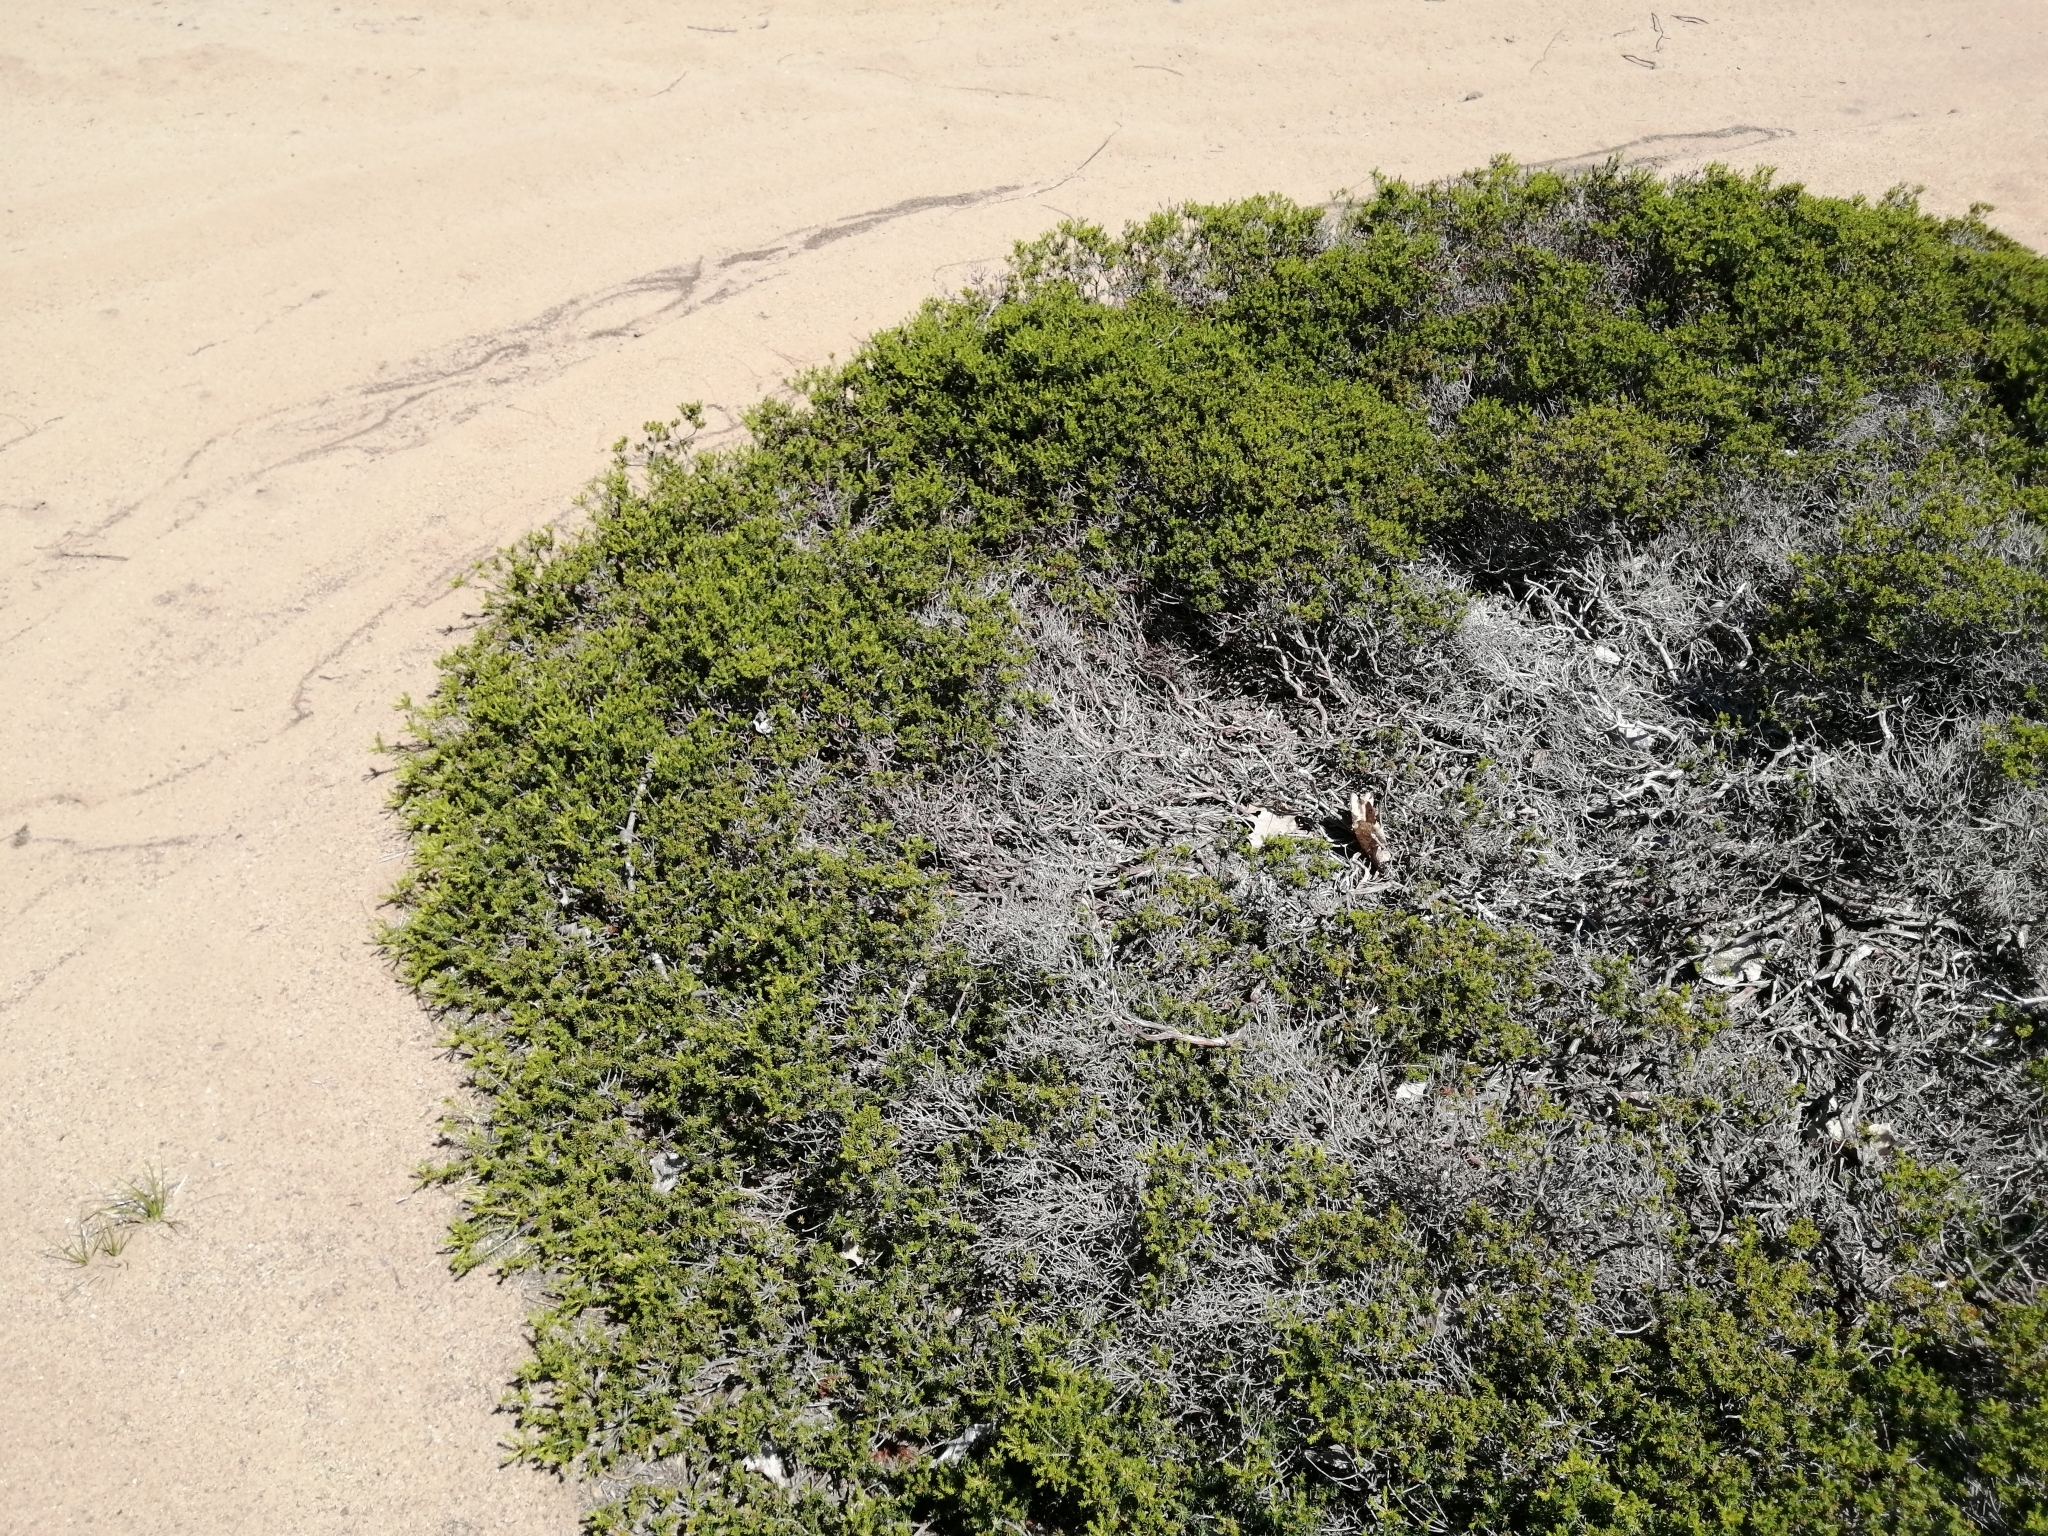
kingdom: Plantae
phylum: Tracheophyta
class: Magnoliopsida
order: Ericales
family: Ericaceae
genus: Corema
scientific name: Corema conradii
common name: Broom-crowberry
